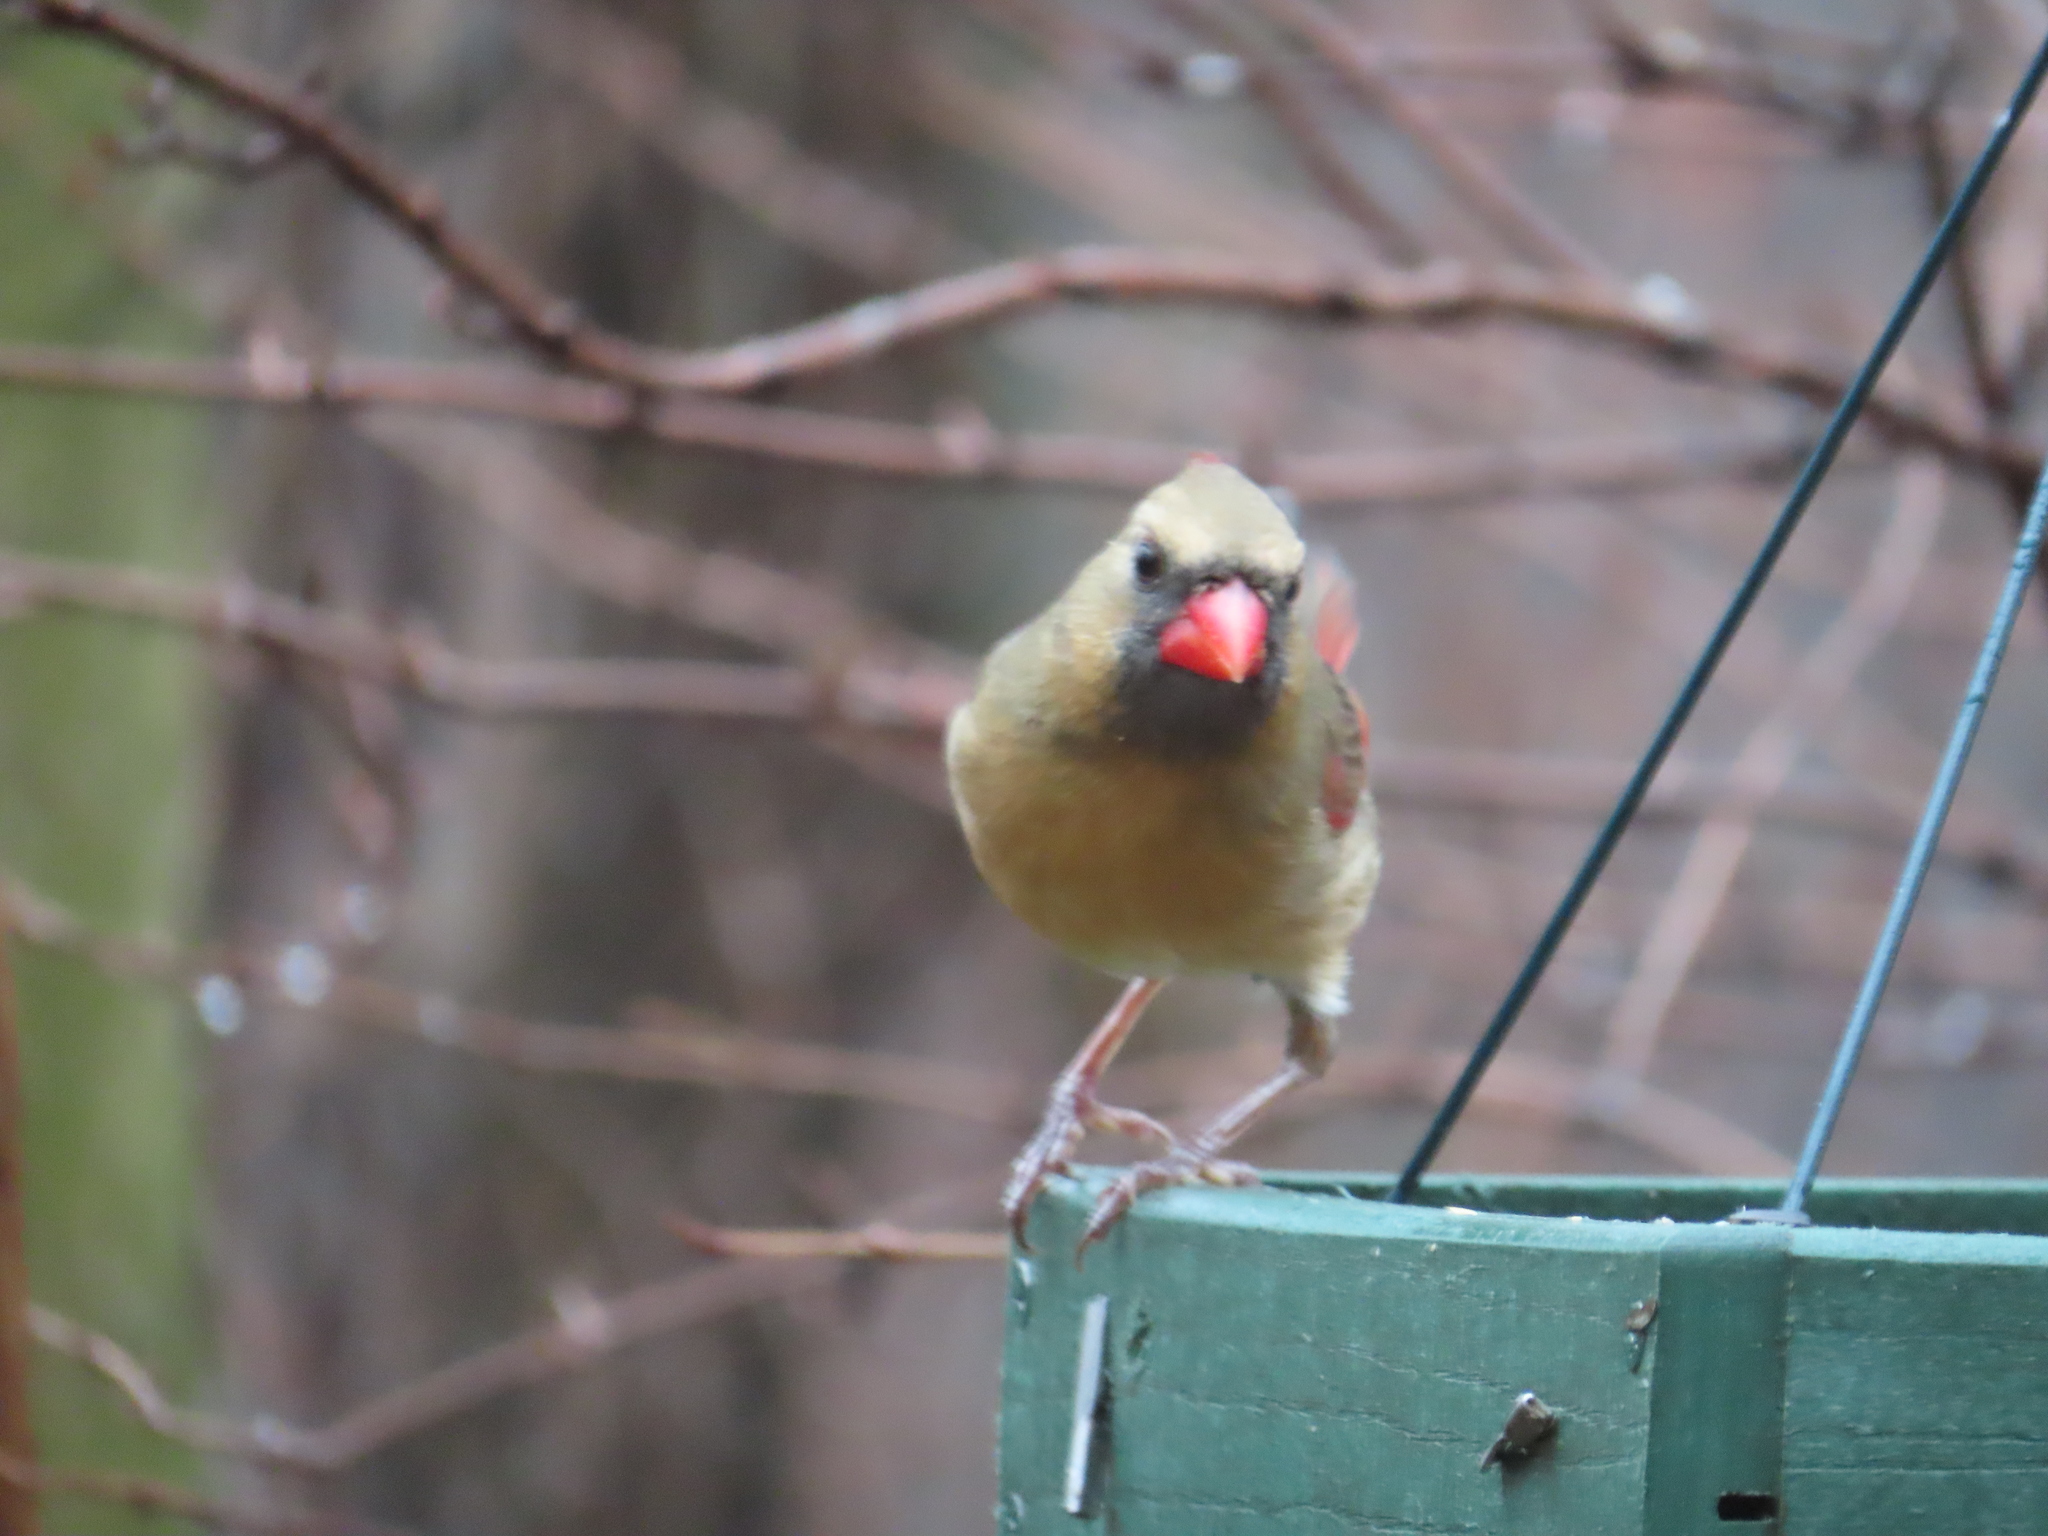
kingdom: Animalia
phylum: Chordata
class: Aves
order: Passeriformes
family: Cardinalidae
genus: Cardinalis
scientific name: Cardinalis cardinalis
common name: Northern cardinal
